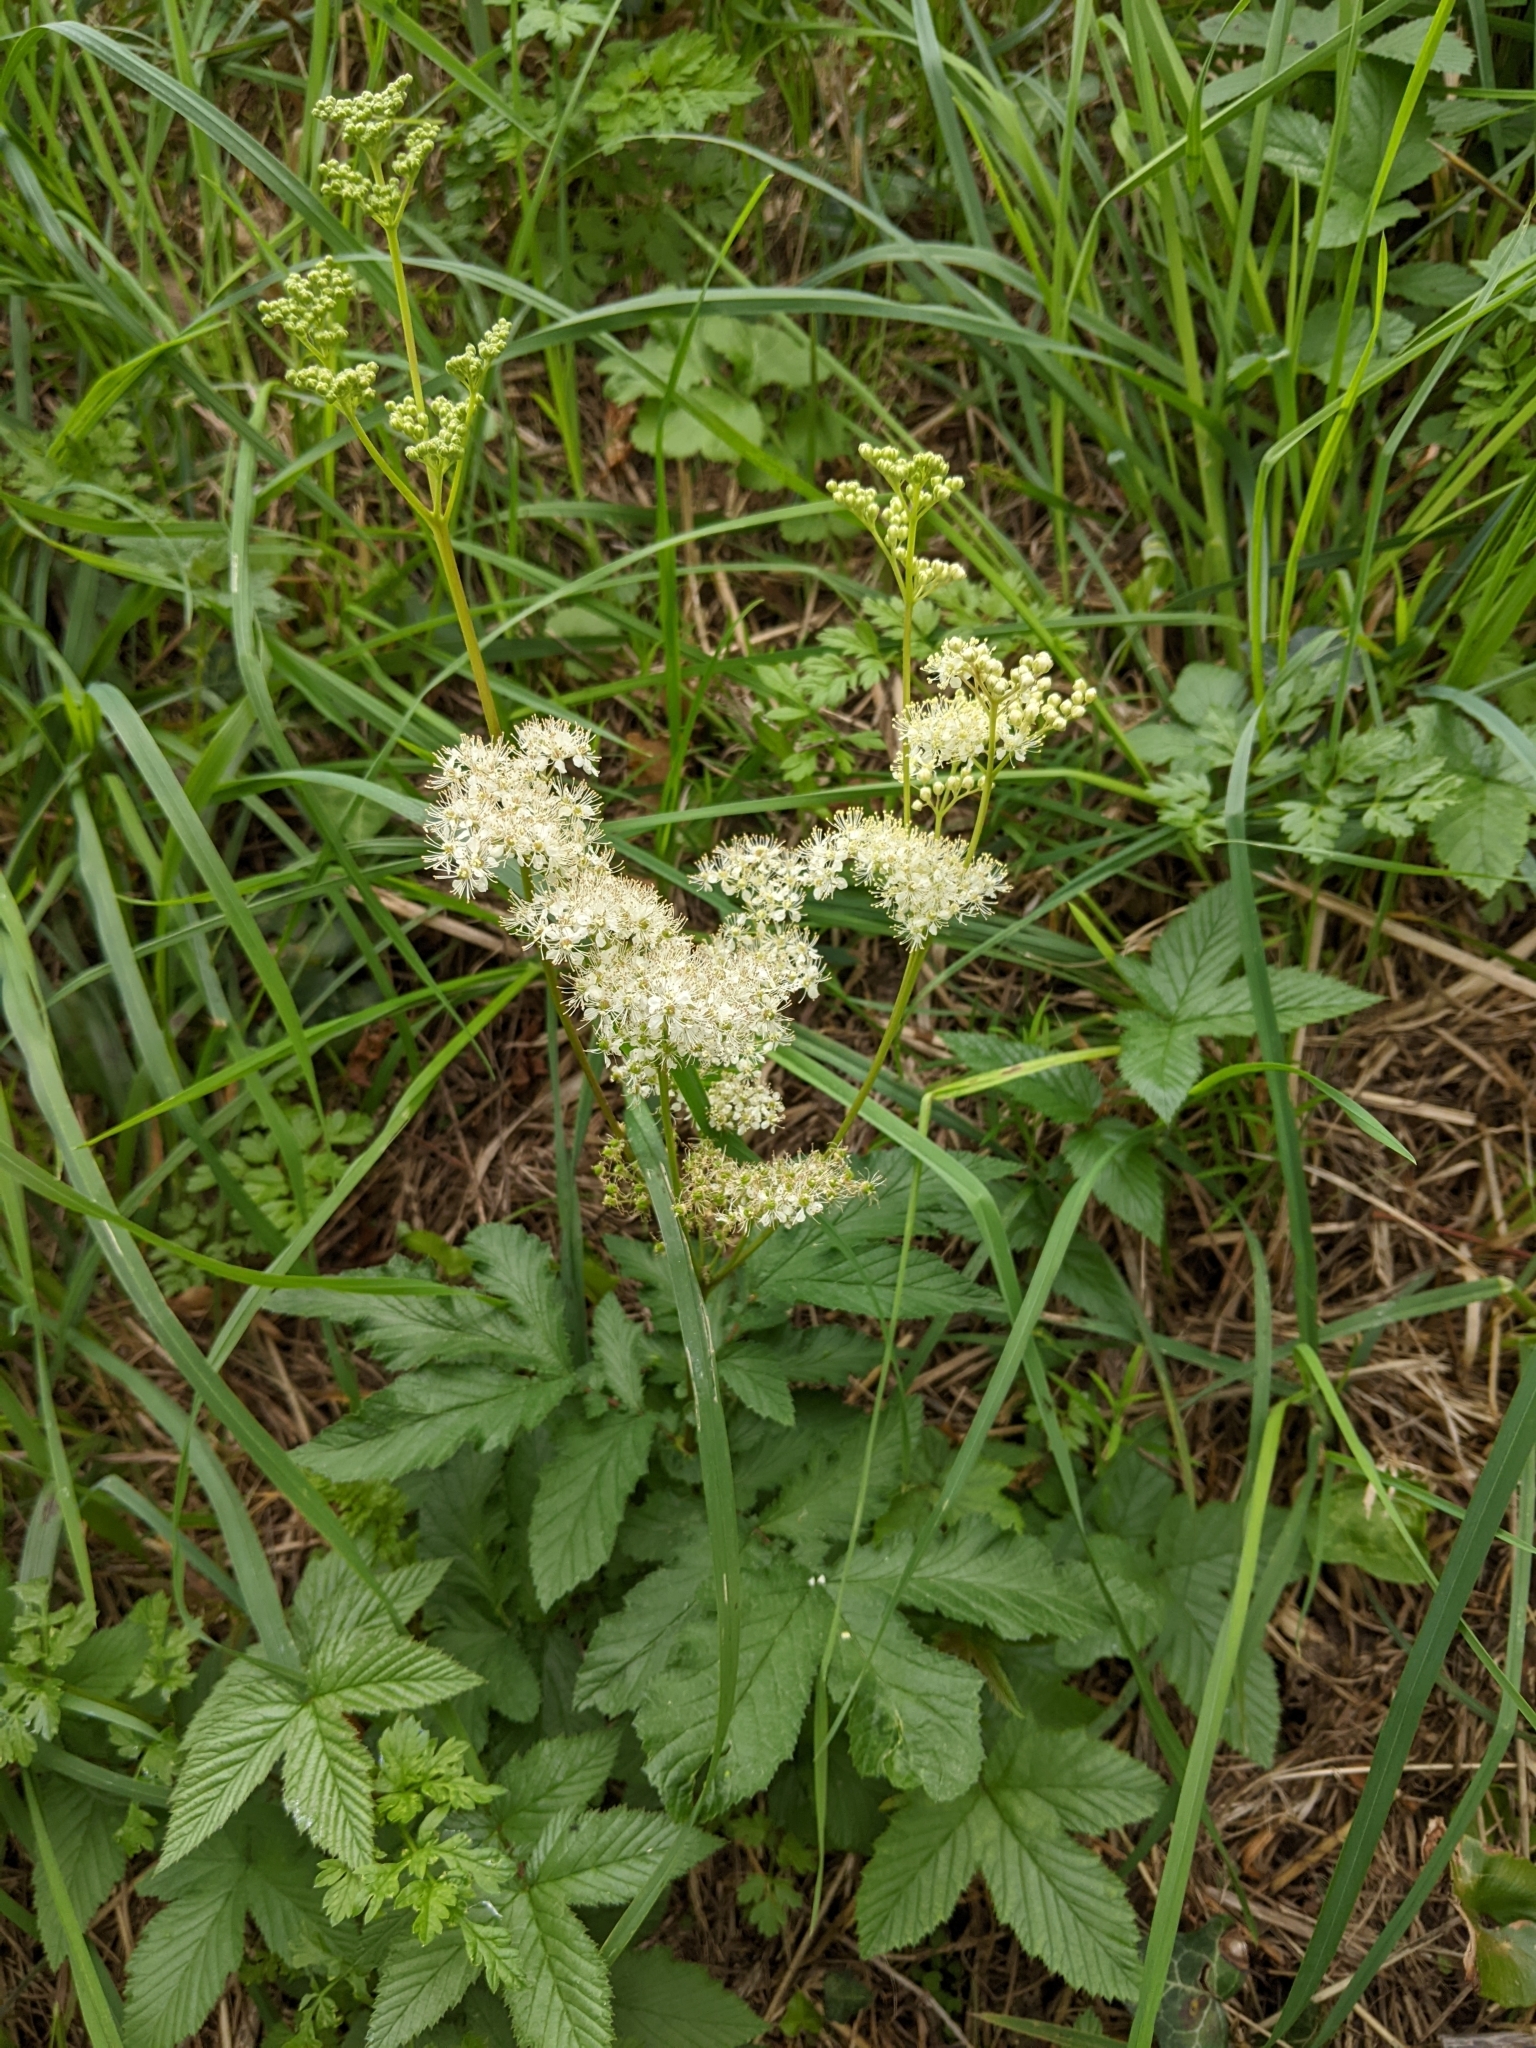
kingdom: Plantae
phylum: Tracheophyta
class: Magnoliopsida
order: Rosales
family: Rosaceae
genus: Filipendula
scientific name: Filipendula ulmaria
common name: Meadowsweet
